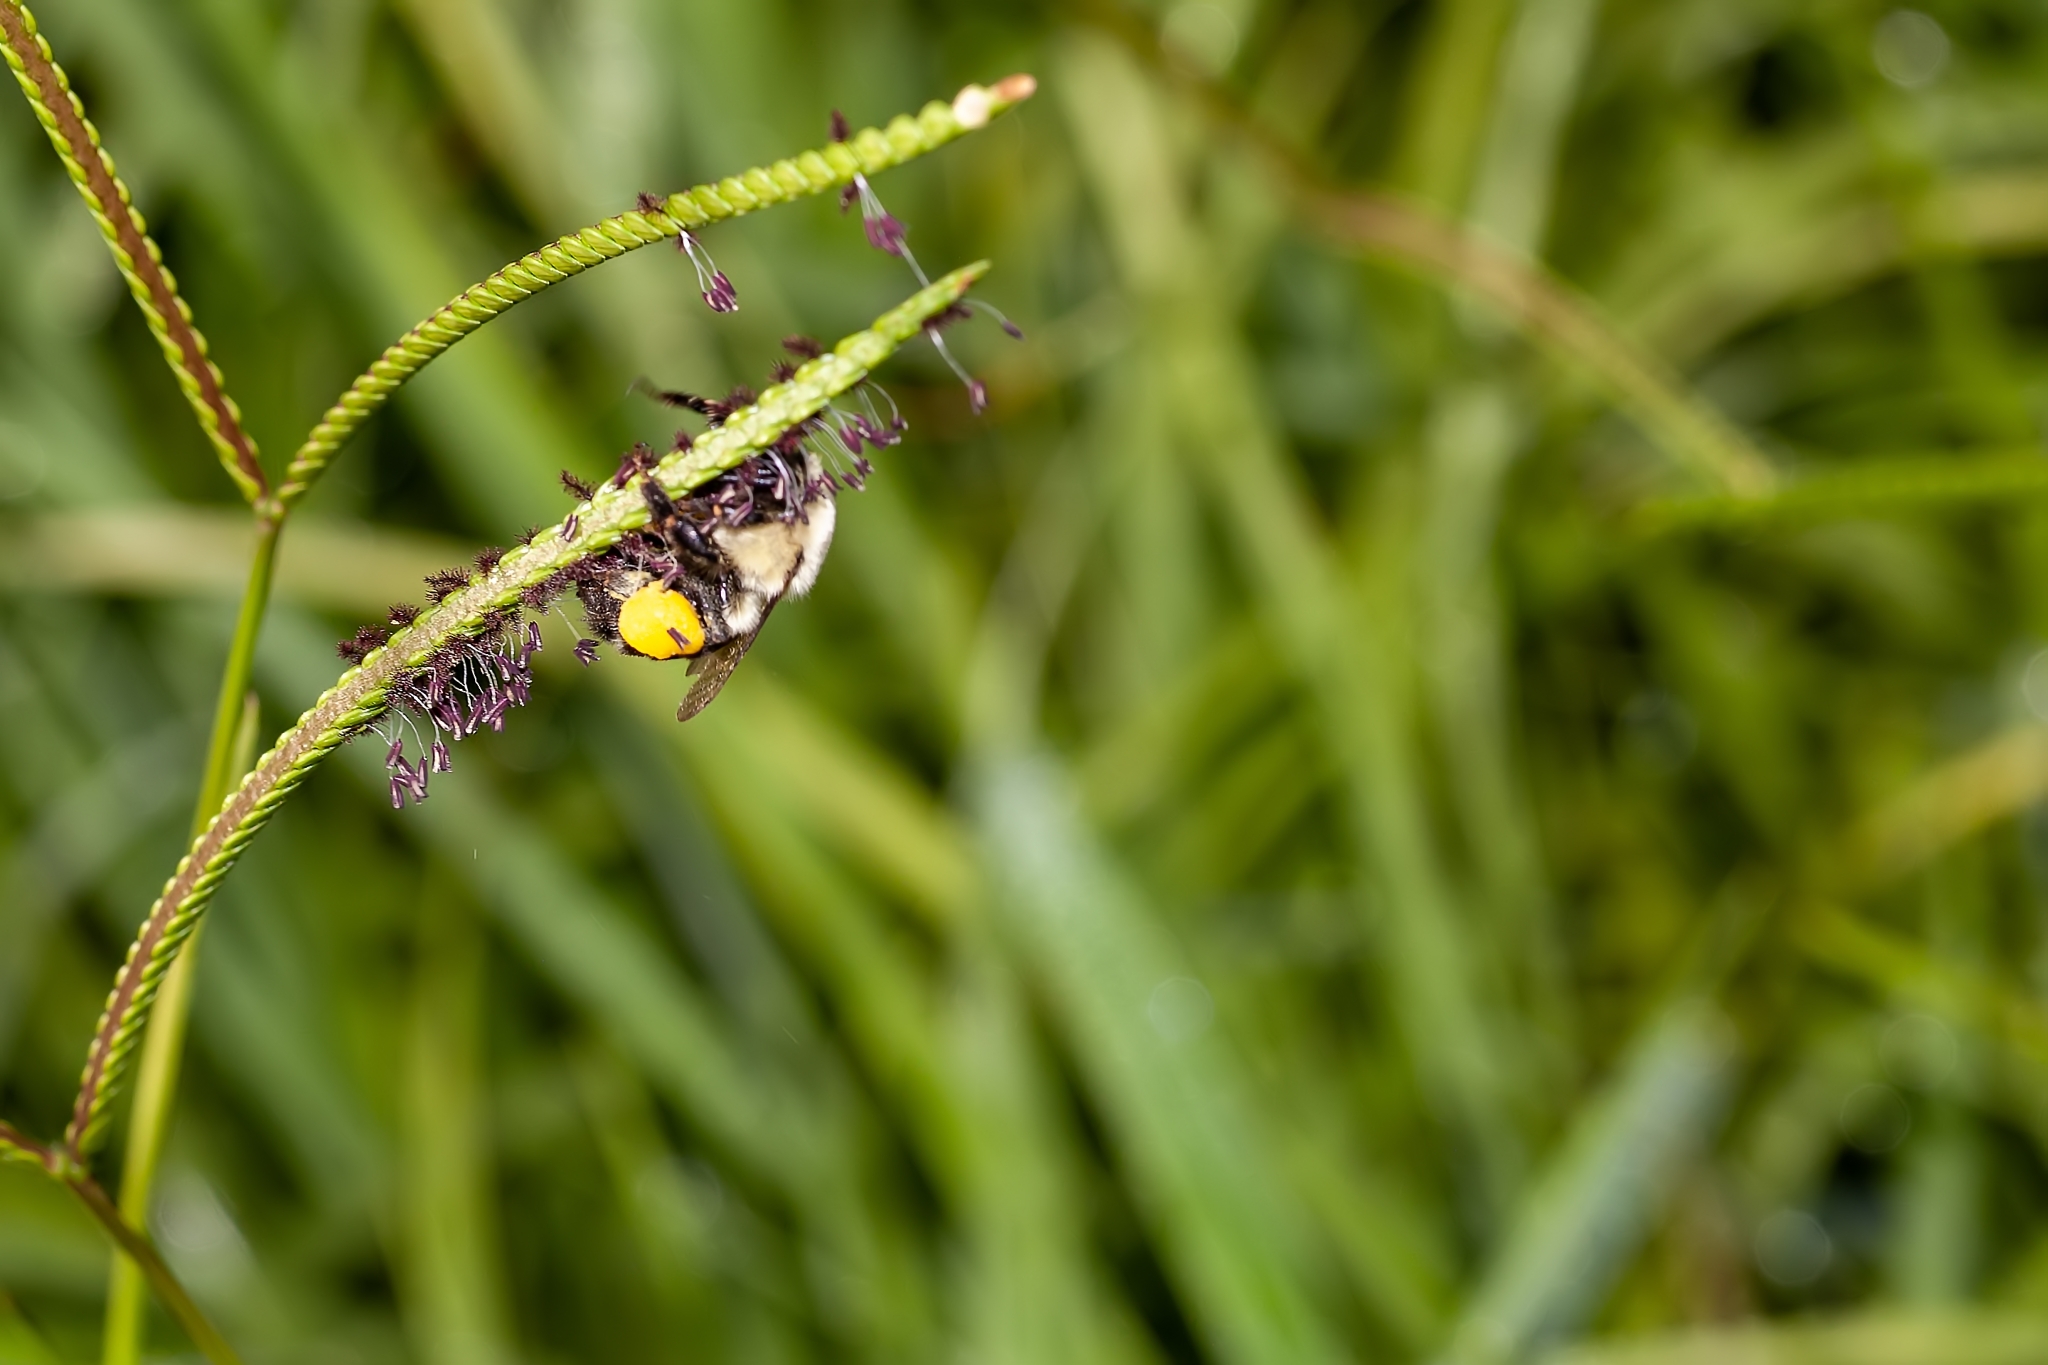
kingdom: Animalia
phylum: Arthropoda
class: Insecta
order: Hymenoptera
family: Apidae
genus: Bombus
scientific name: Bombus impatiens
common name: Common eastern bumble bee
